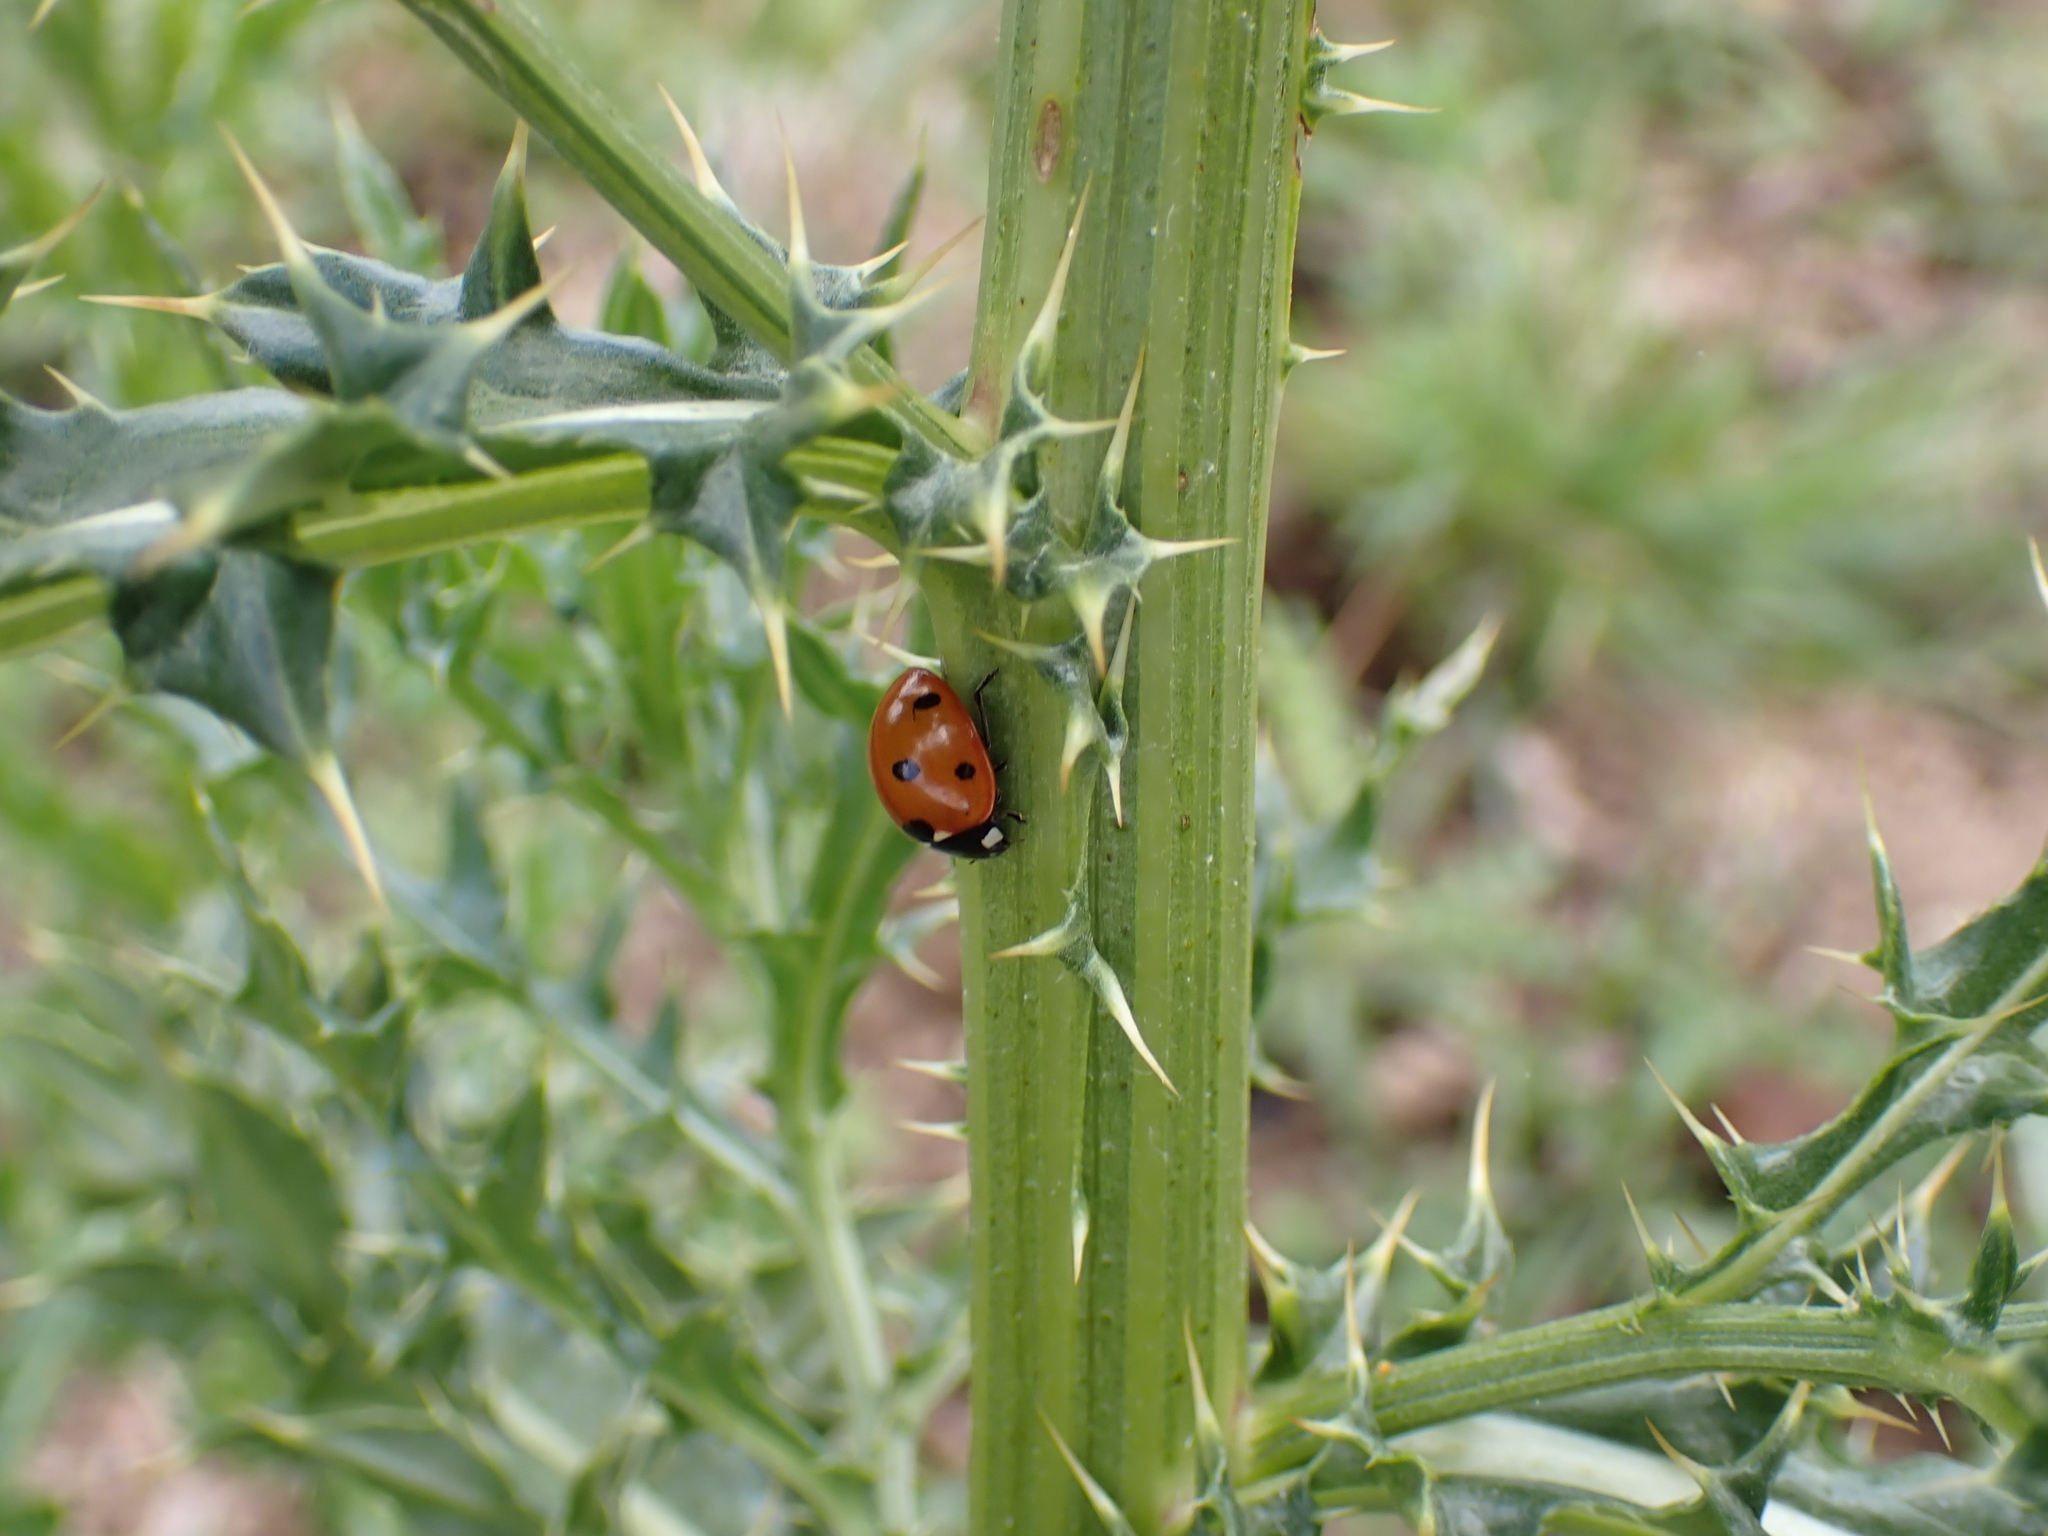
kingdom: Animalia
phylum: Arthropoda
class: Insecta
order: Coleoptera
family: Coccinellidae
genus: Coccinella
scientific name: Coccinella septempunctata
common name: Sevenspotted lady beetle
